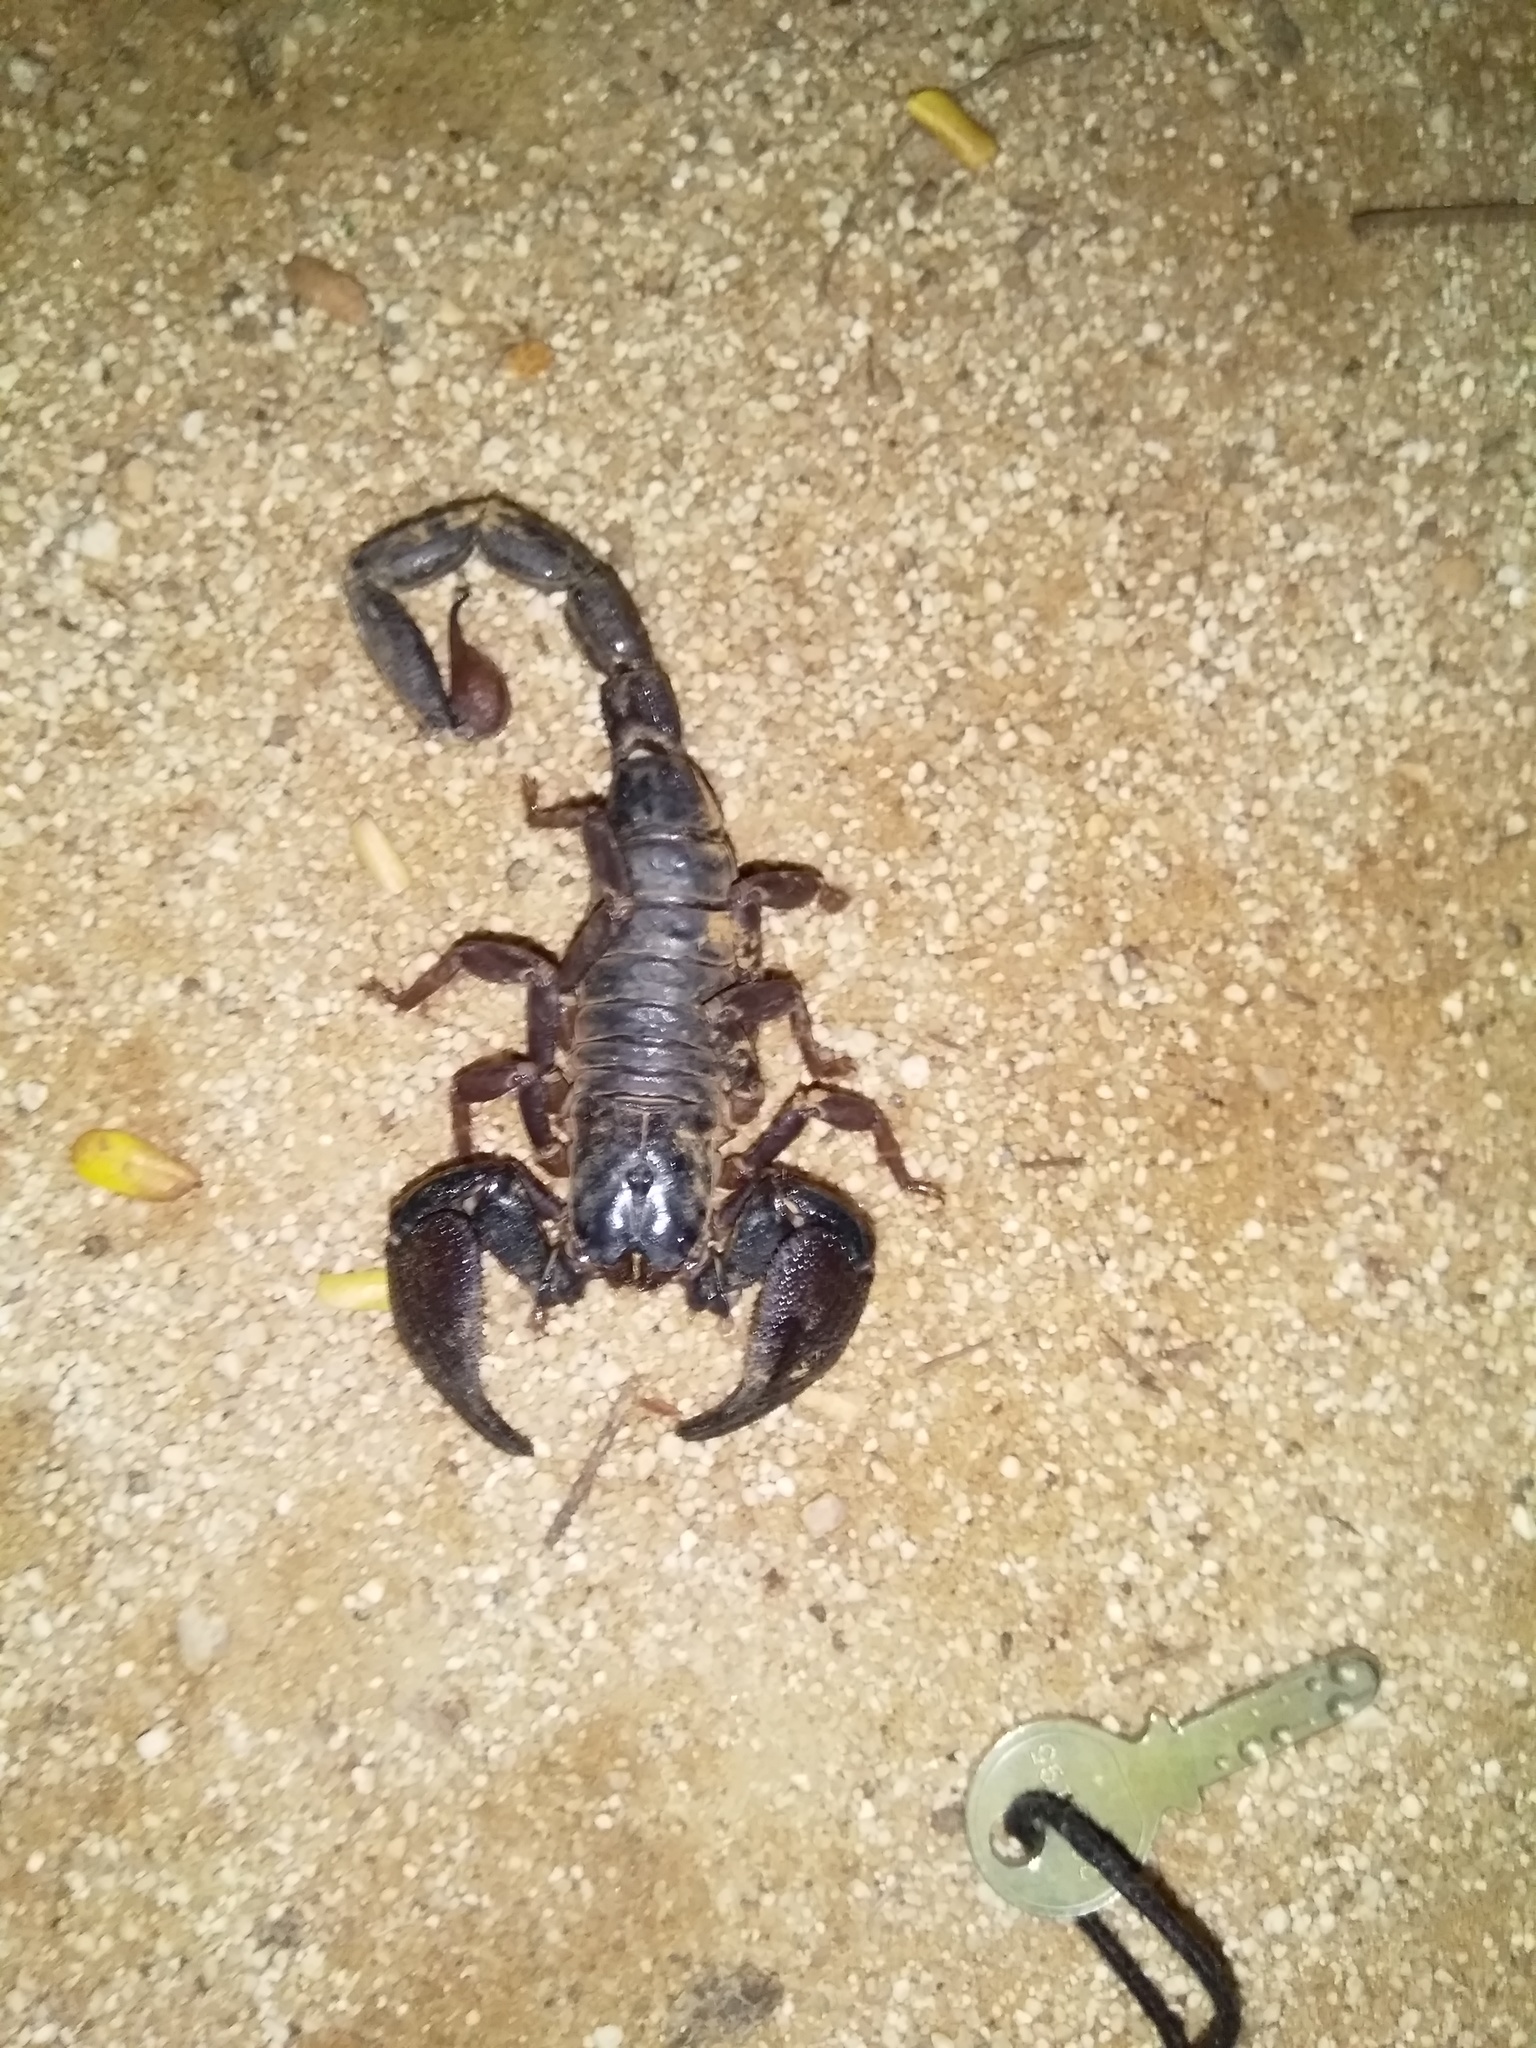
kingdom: Animalia
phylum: Arthropoda
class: Arachnida
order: Scorpiones
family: Scorpionidae
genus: Gigantometrus
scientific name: Gigantometrus swammerdami
